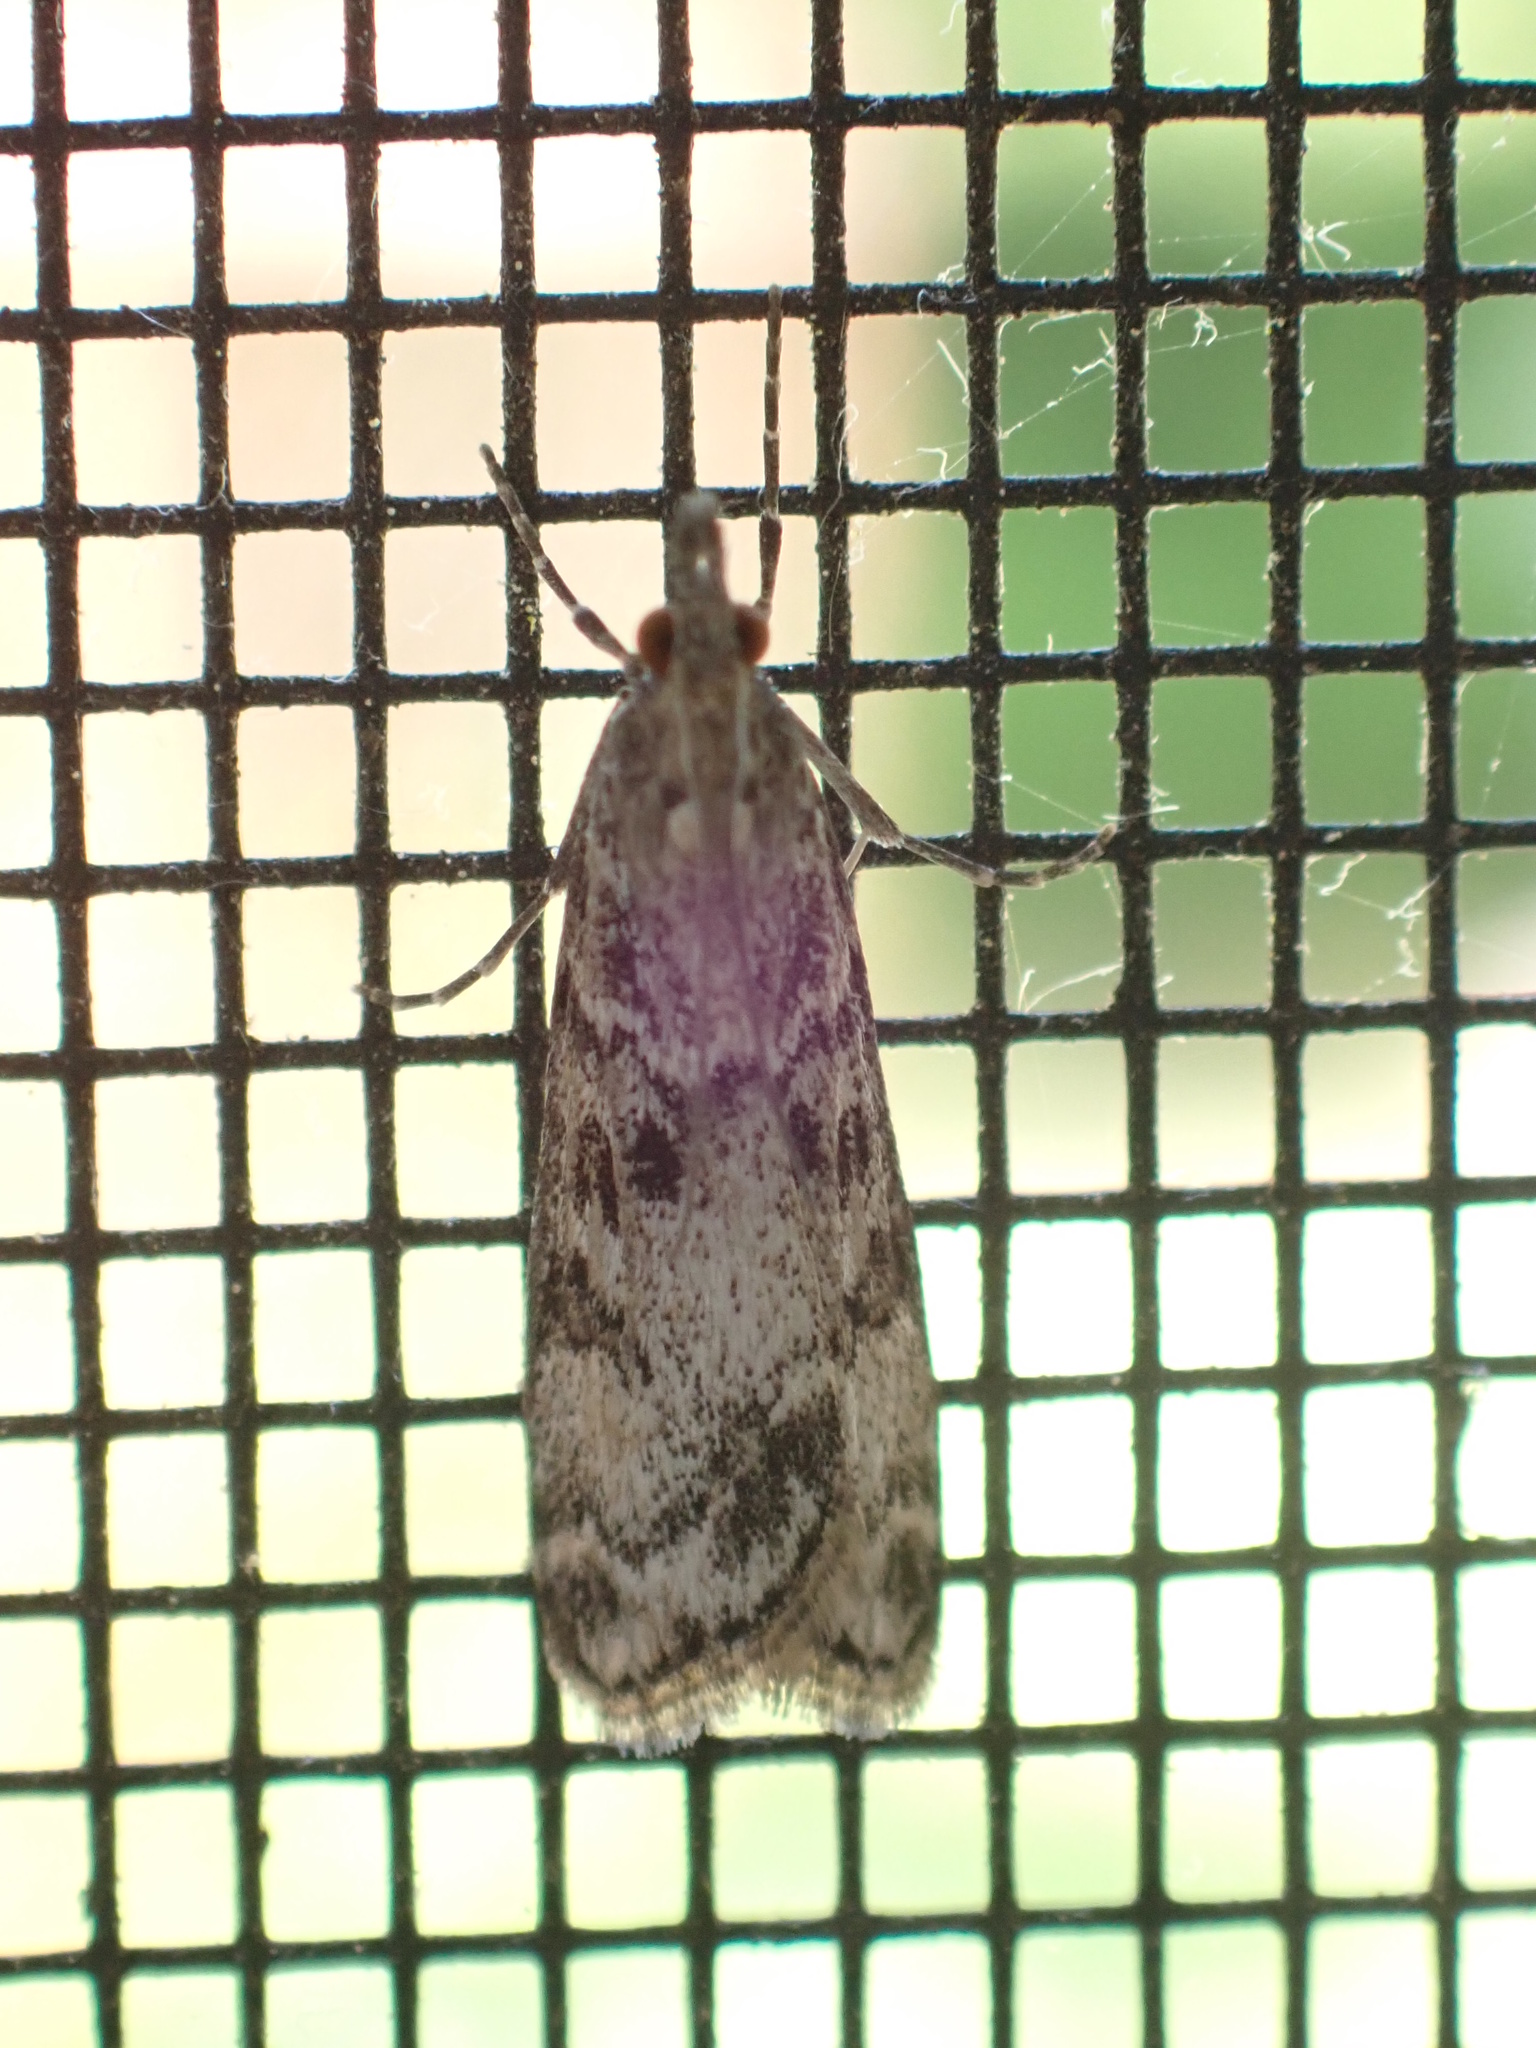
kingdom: Animalia
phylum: Arthropoda
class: Insecta
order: Lepidoptera
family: Crambidae
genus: Eudonia
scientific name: Eudonia heterosalis
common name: Mcdunnough's eudonia
